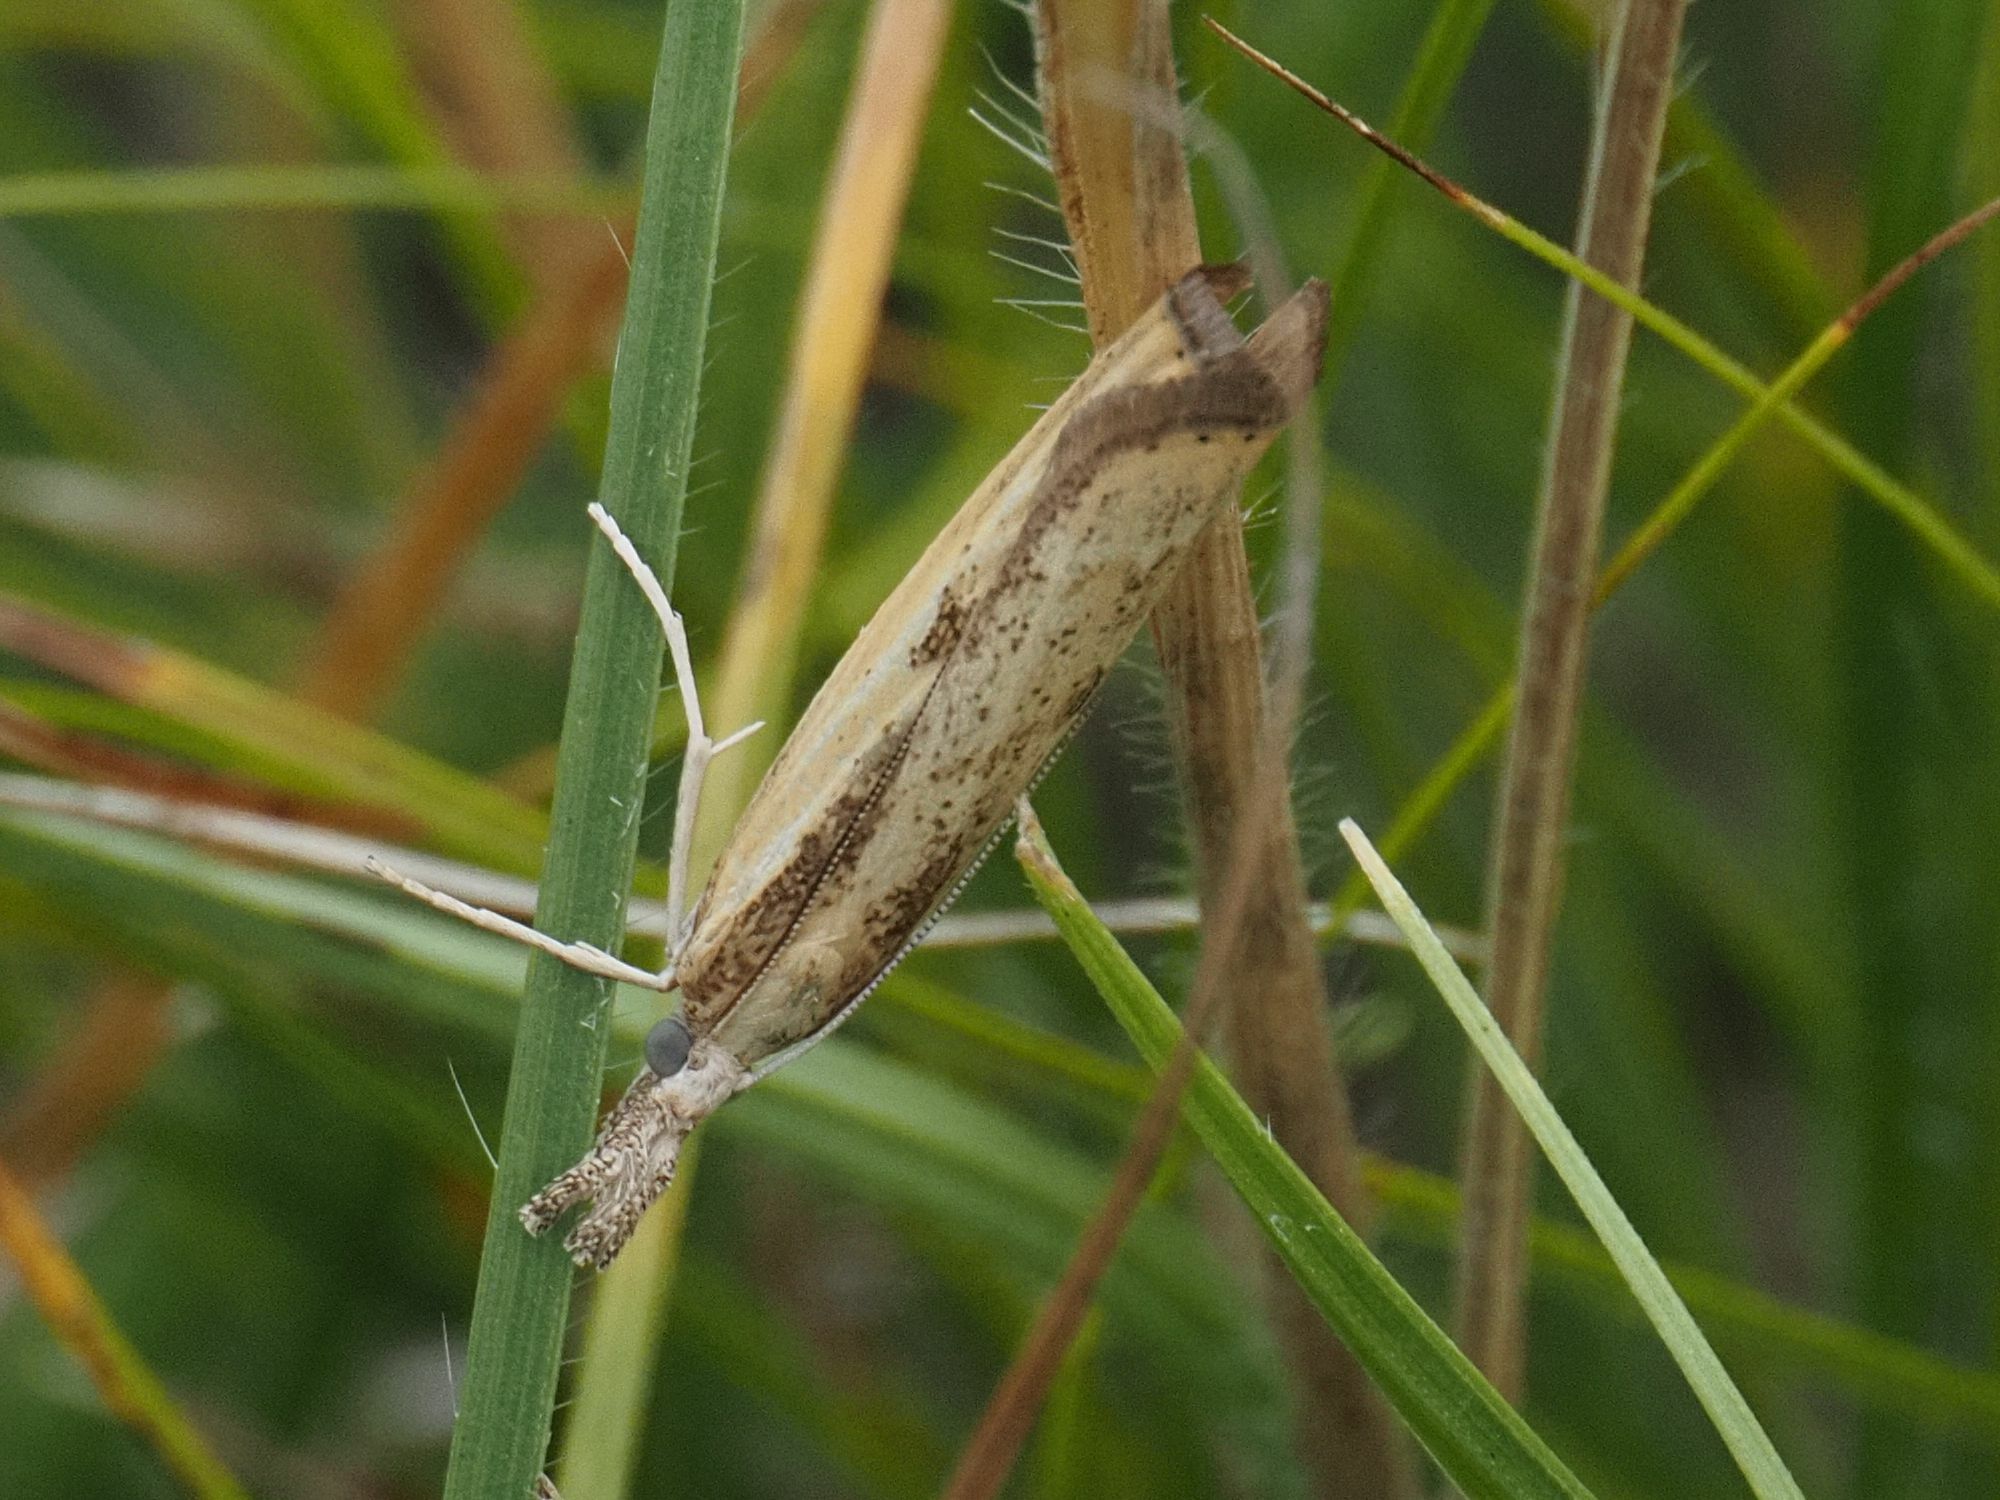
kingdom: Animalia
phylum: Arthropoda
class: Insecta
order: Lepidoptera
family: Crambidae
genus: Agriphila
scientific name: Agriphila inquinatella
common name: Barred grass-veneer
